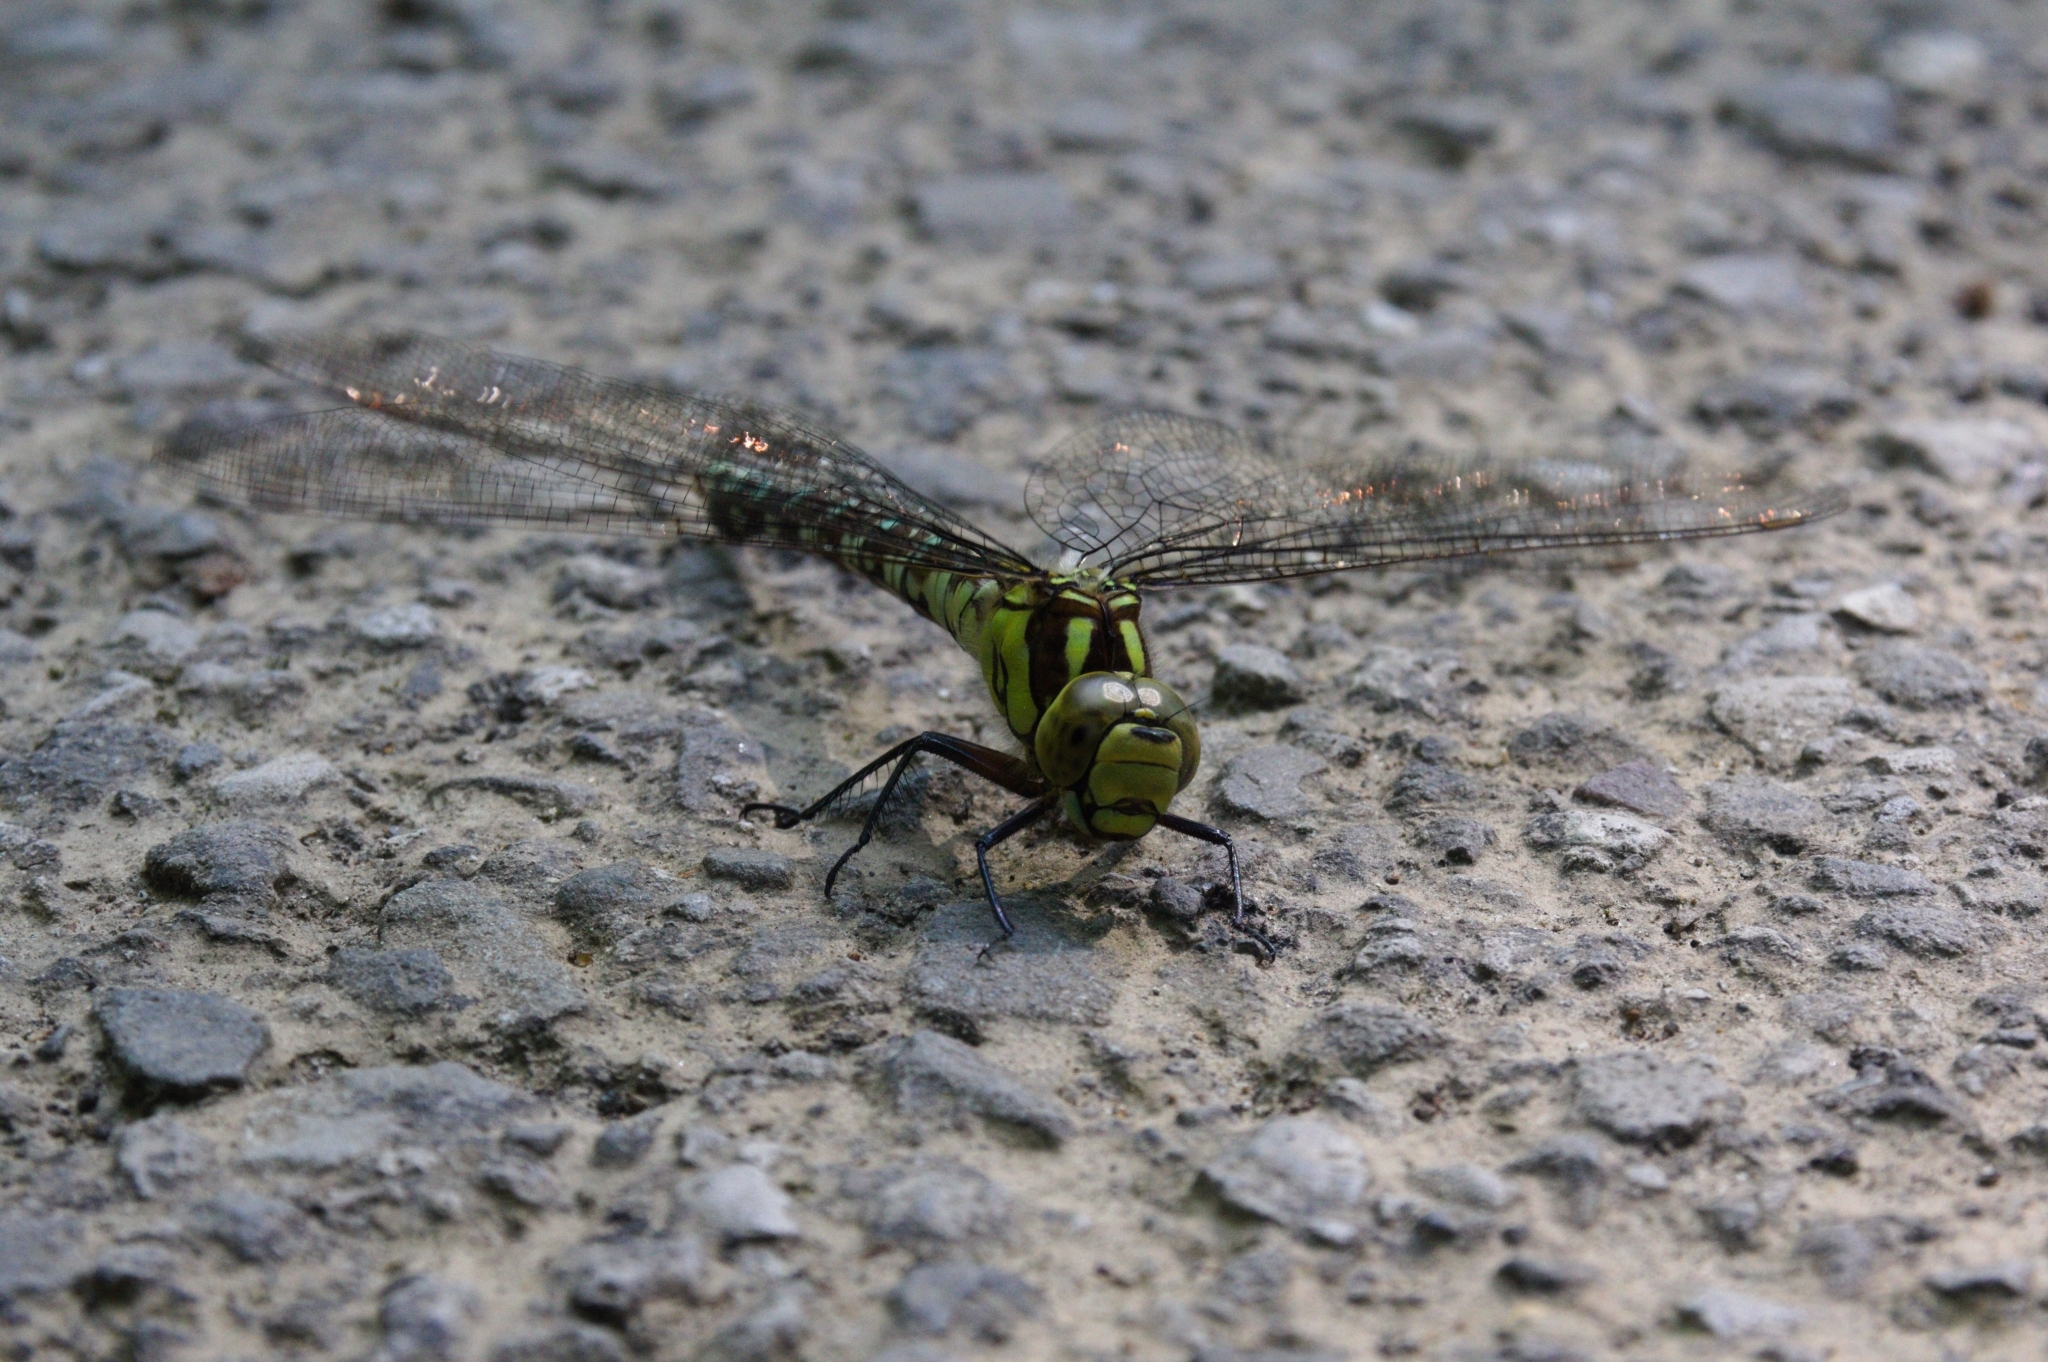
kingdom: Animalia
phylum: Arthropoda
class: Insecta
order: Odonata
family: Aeshnidae
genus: Aeshna
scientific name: Aeshna cyanea
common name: Southern hawker
